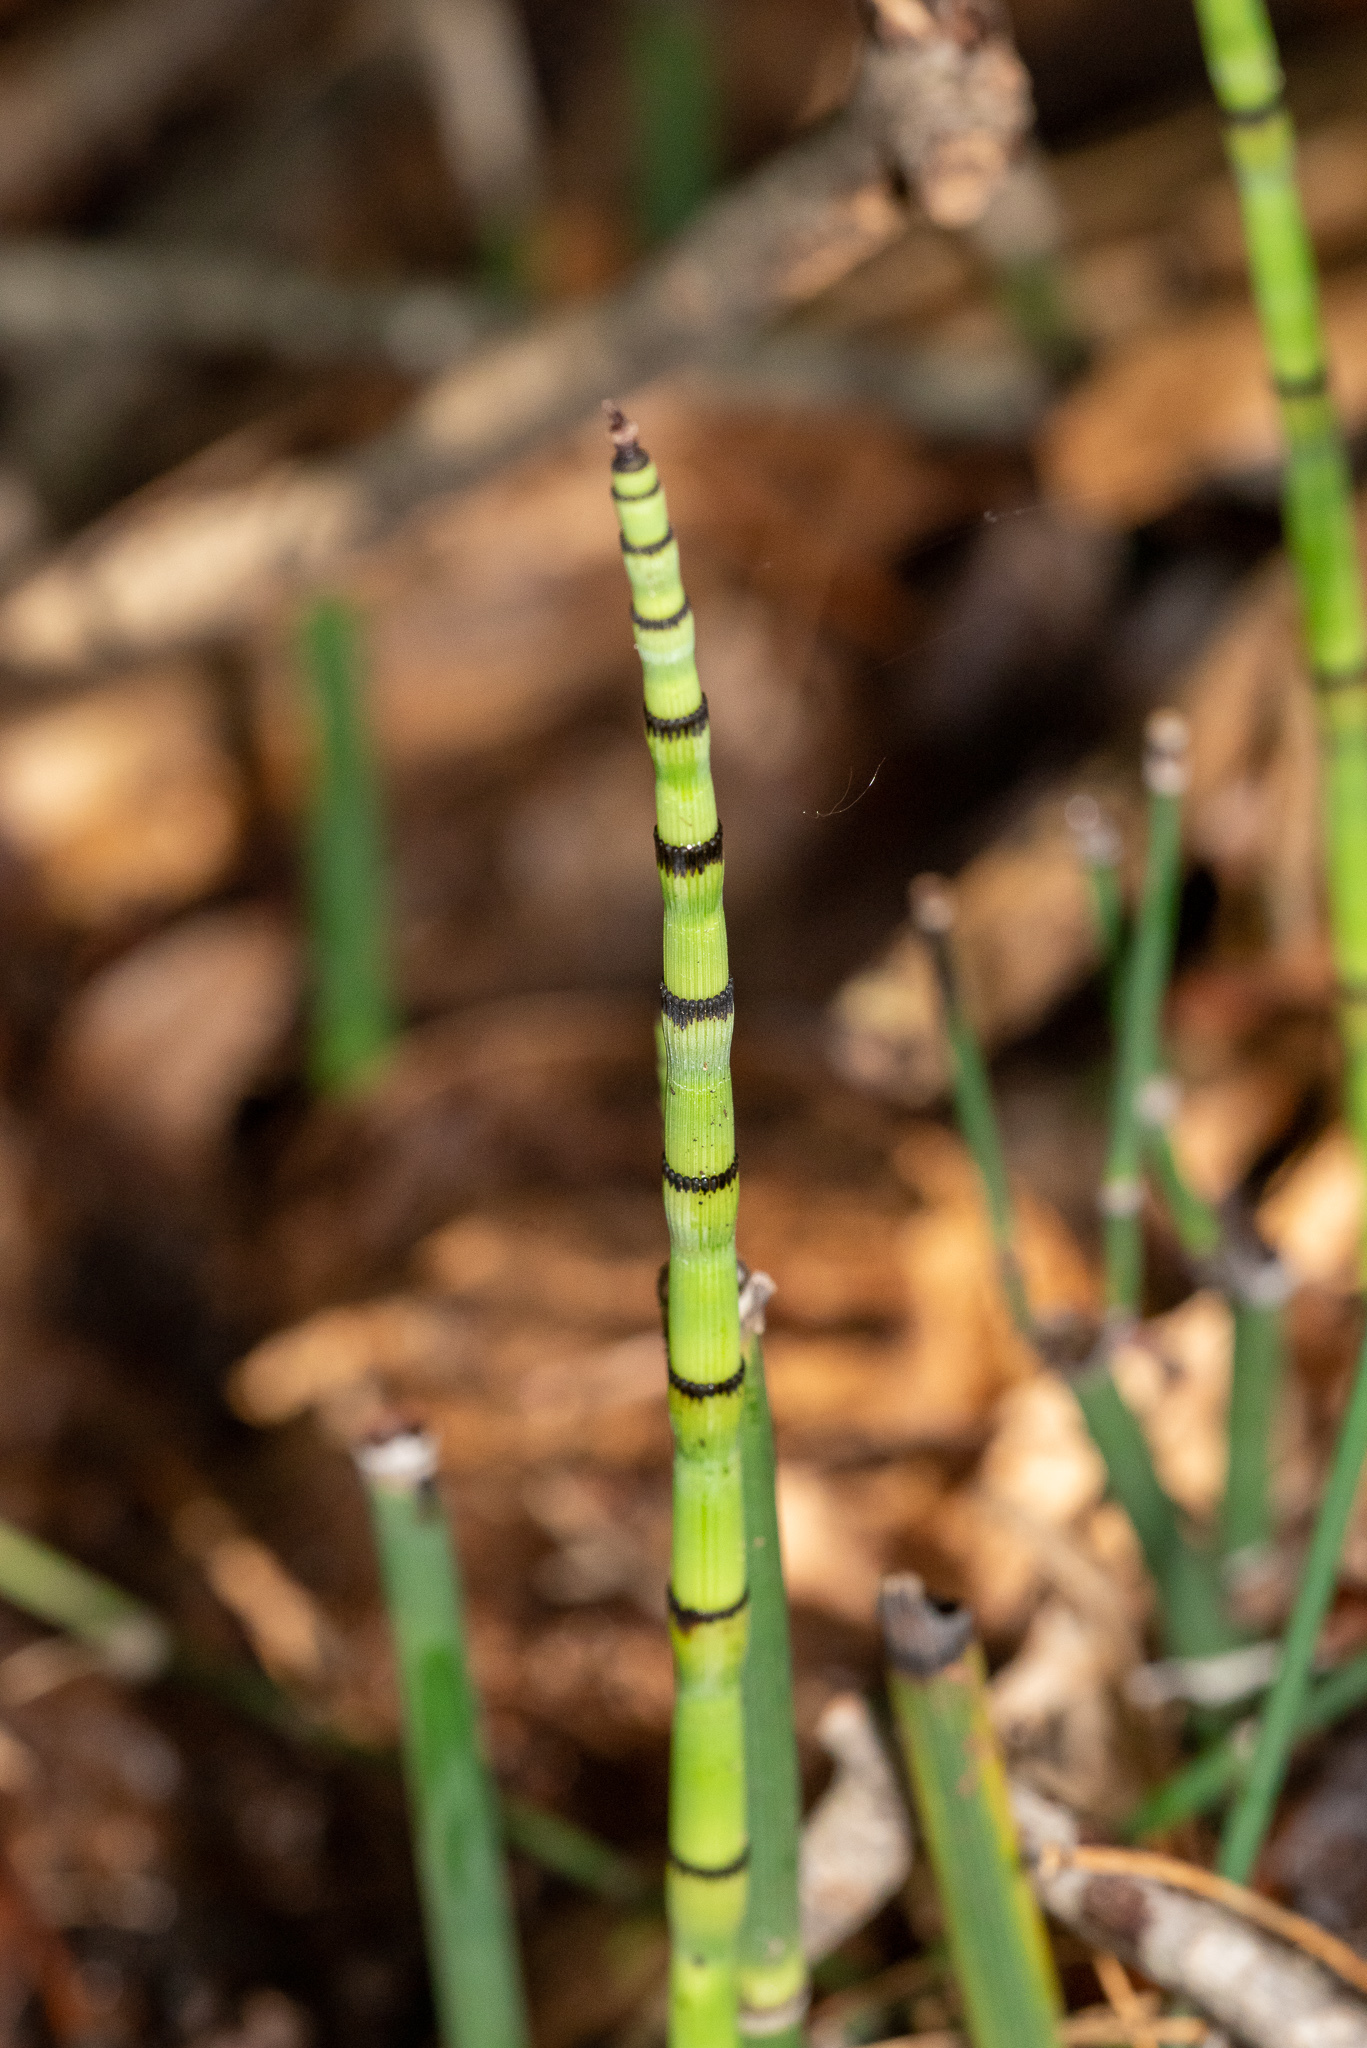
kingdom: Plantae
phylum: Tracheophyta
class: Polypodiopsida
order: Equisetales
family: Equisetaceae
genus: Equisetum
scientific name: Equisetum praealtum
